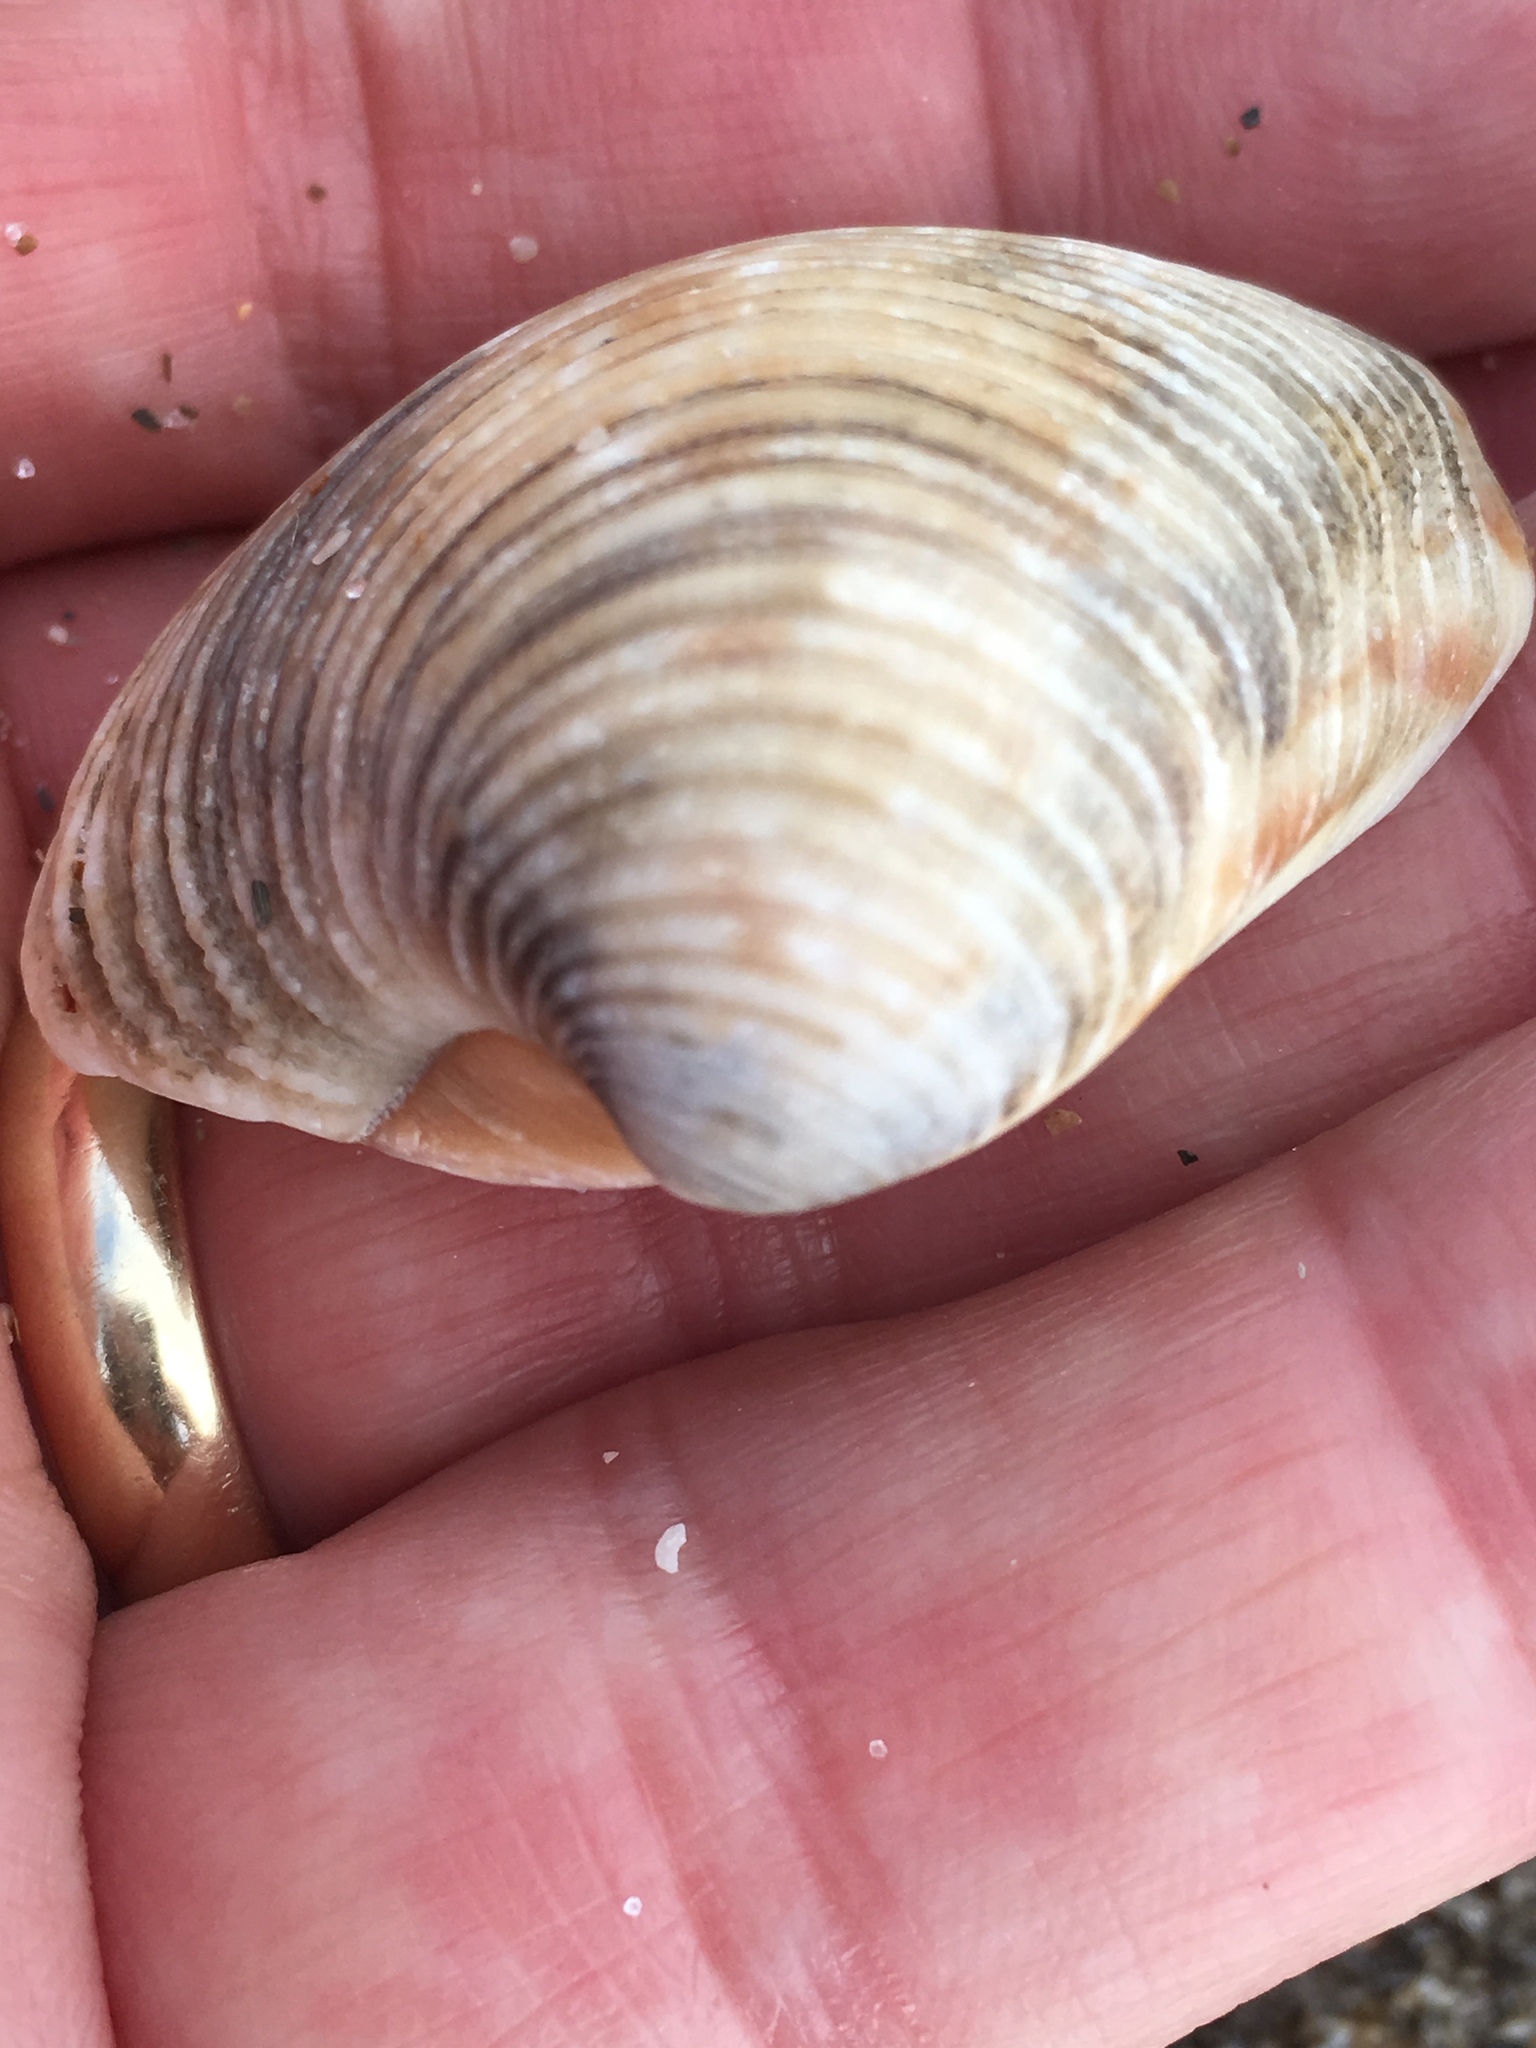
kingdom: Animalia
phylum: Mollusca
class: Bivalvia
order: Venerida
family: Veneridae
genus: Chionopsis
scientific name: Chionopsis intapurpurea
